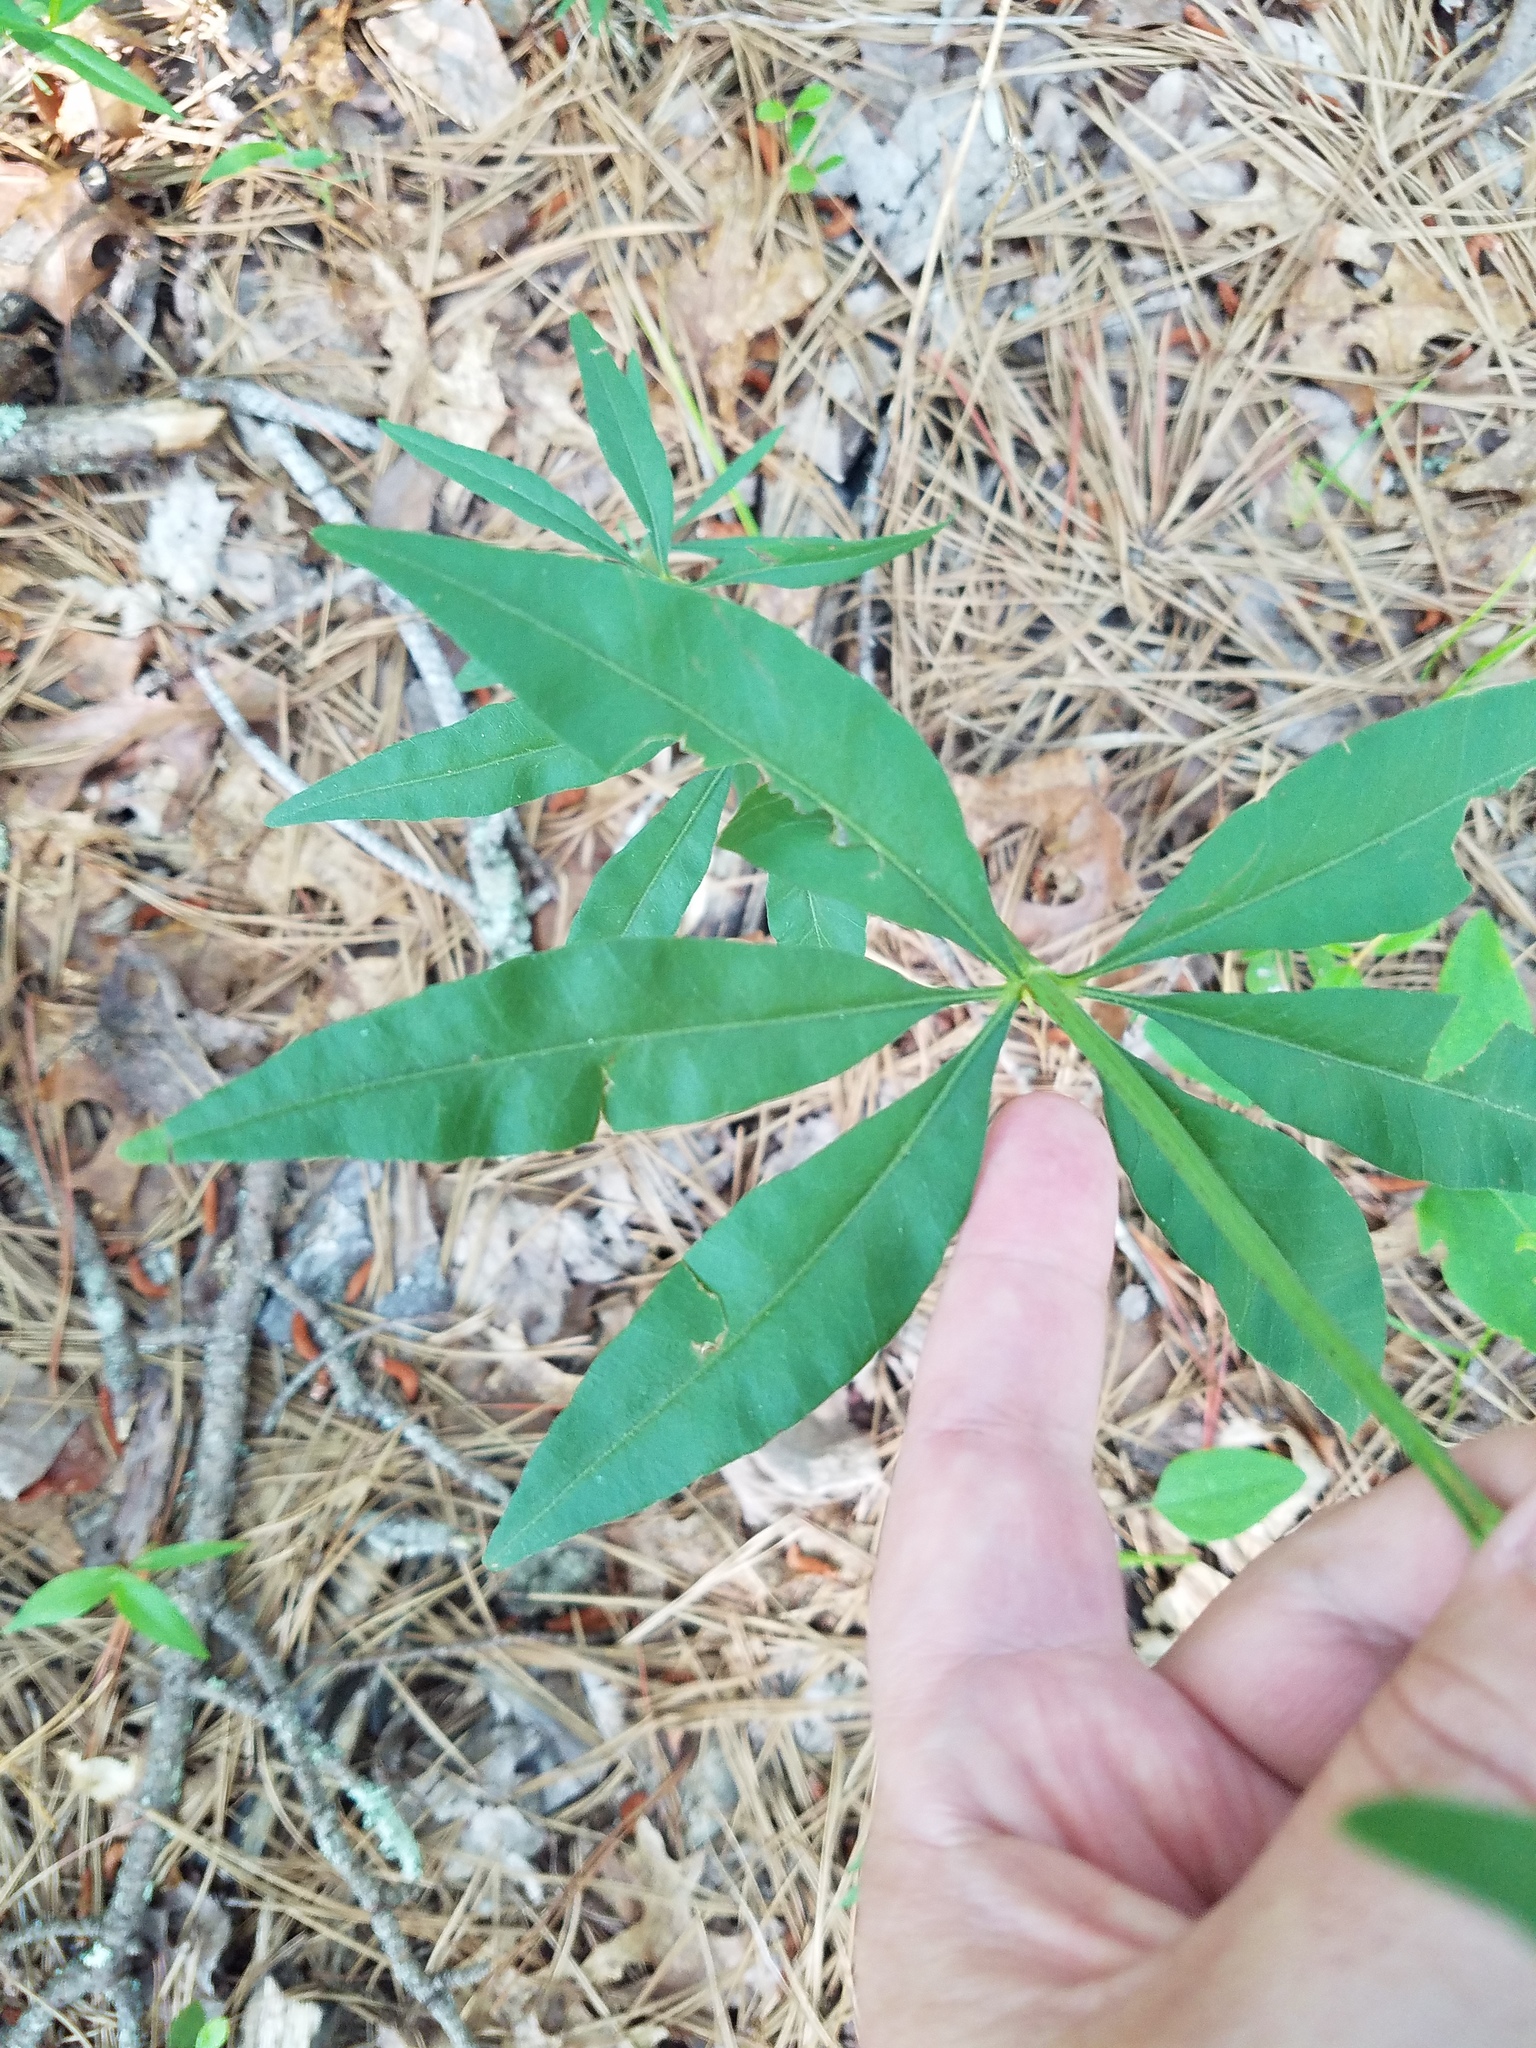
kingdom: Plantae
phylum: Tracheophyta
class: Magnoliopsida
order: Asterales
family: Asteraceae
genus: Coreopsis
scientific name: Coreopsis major
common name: Forest tickseed
